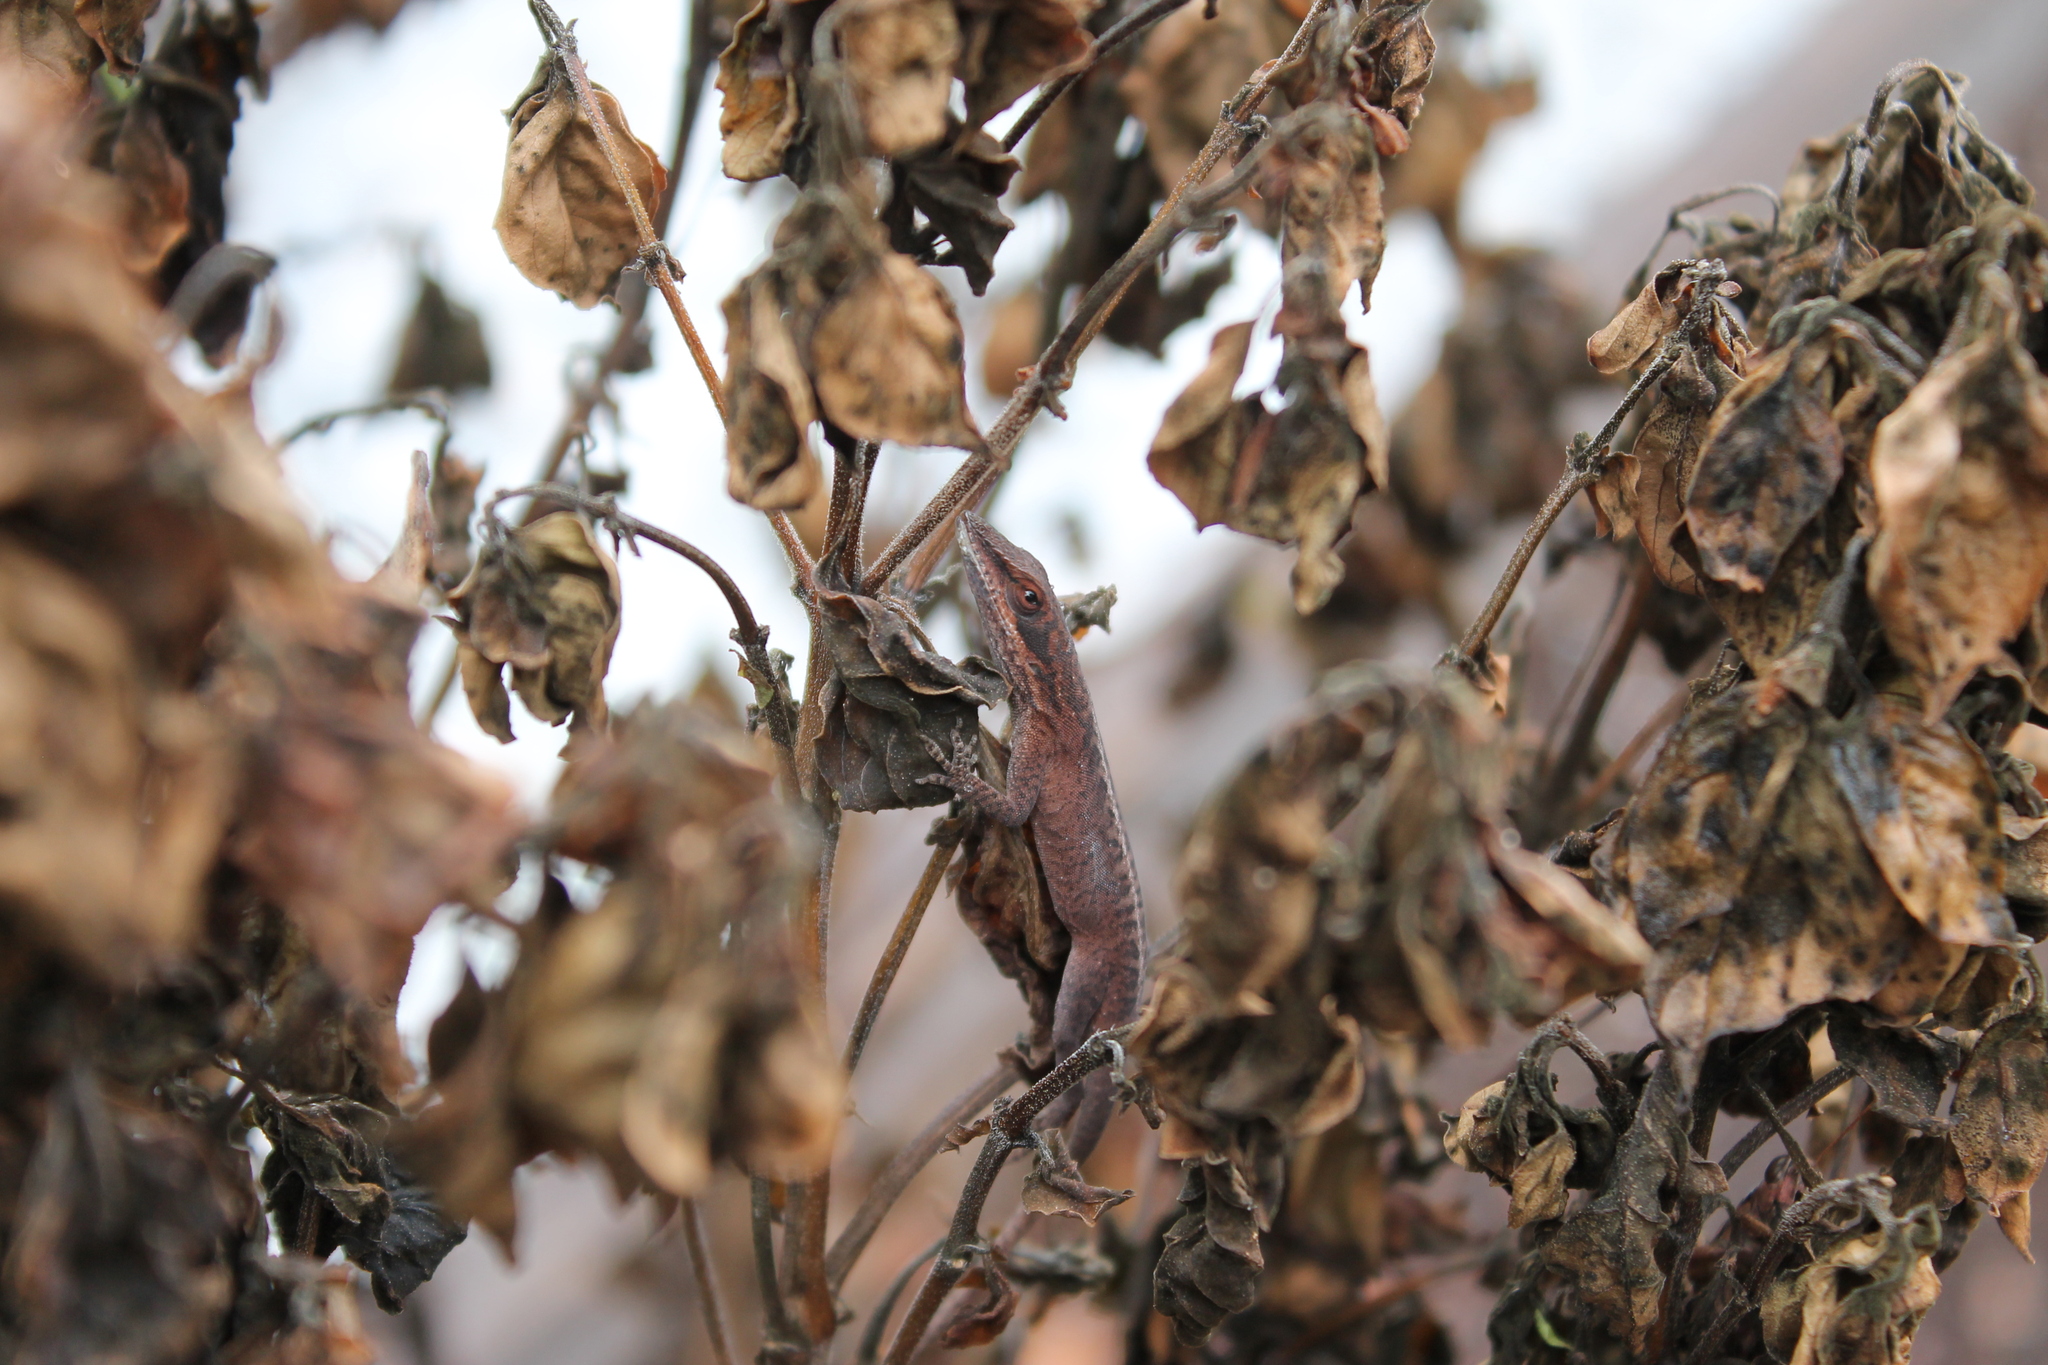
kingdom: Animalia
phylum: Chordata
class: Squamata
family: Dactyloidae
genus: Anolis
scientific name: Anolis carolinensis
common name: Green anole
